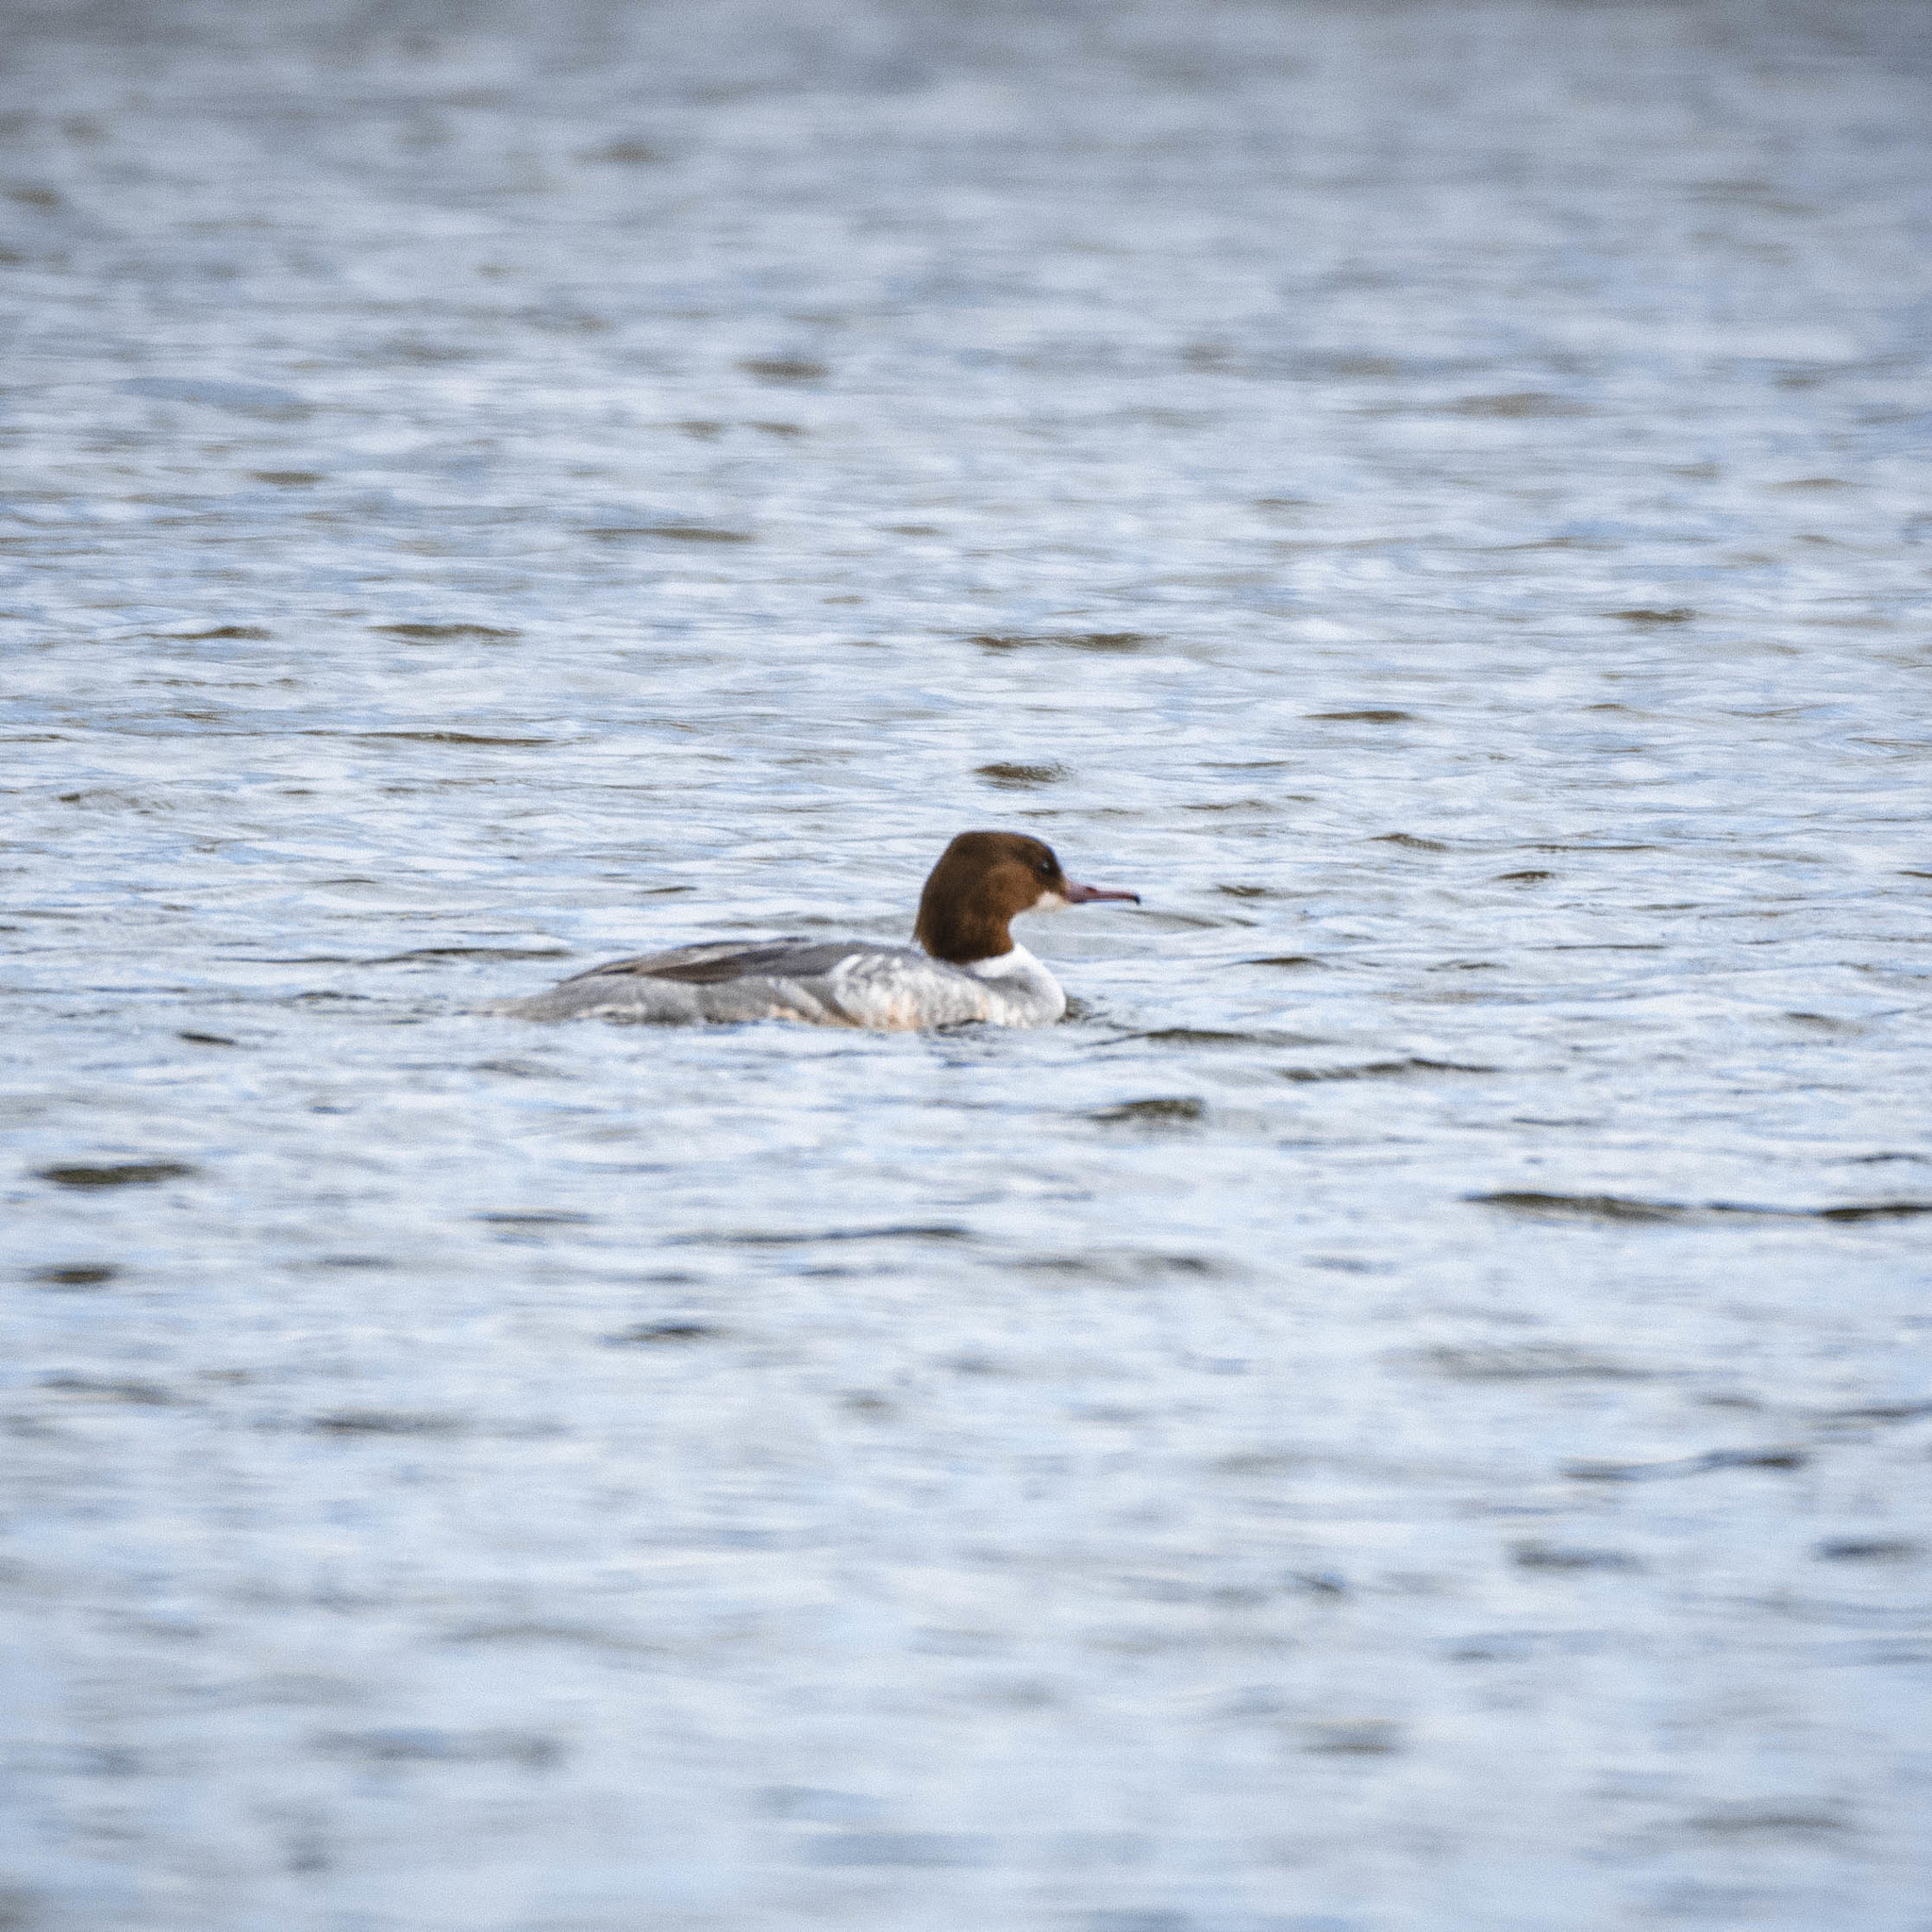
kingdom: Animalia
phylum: Chordata
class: Aves
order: Anseriformes
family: Anatidae
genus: Mergus
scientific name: Mergus merganser
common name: Common merganser
